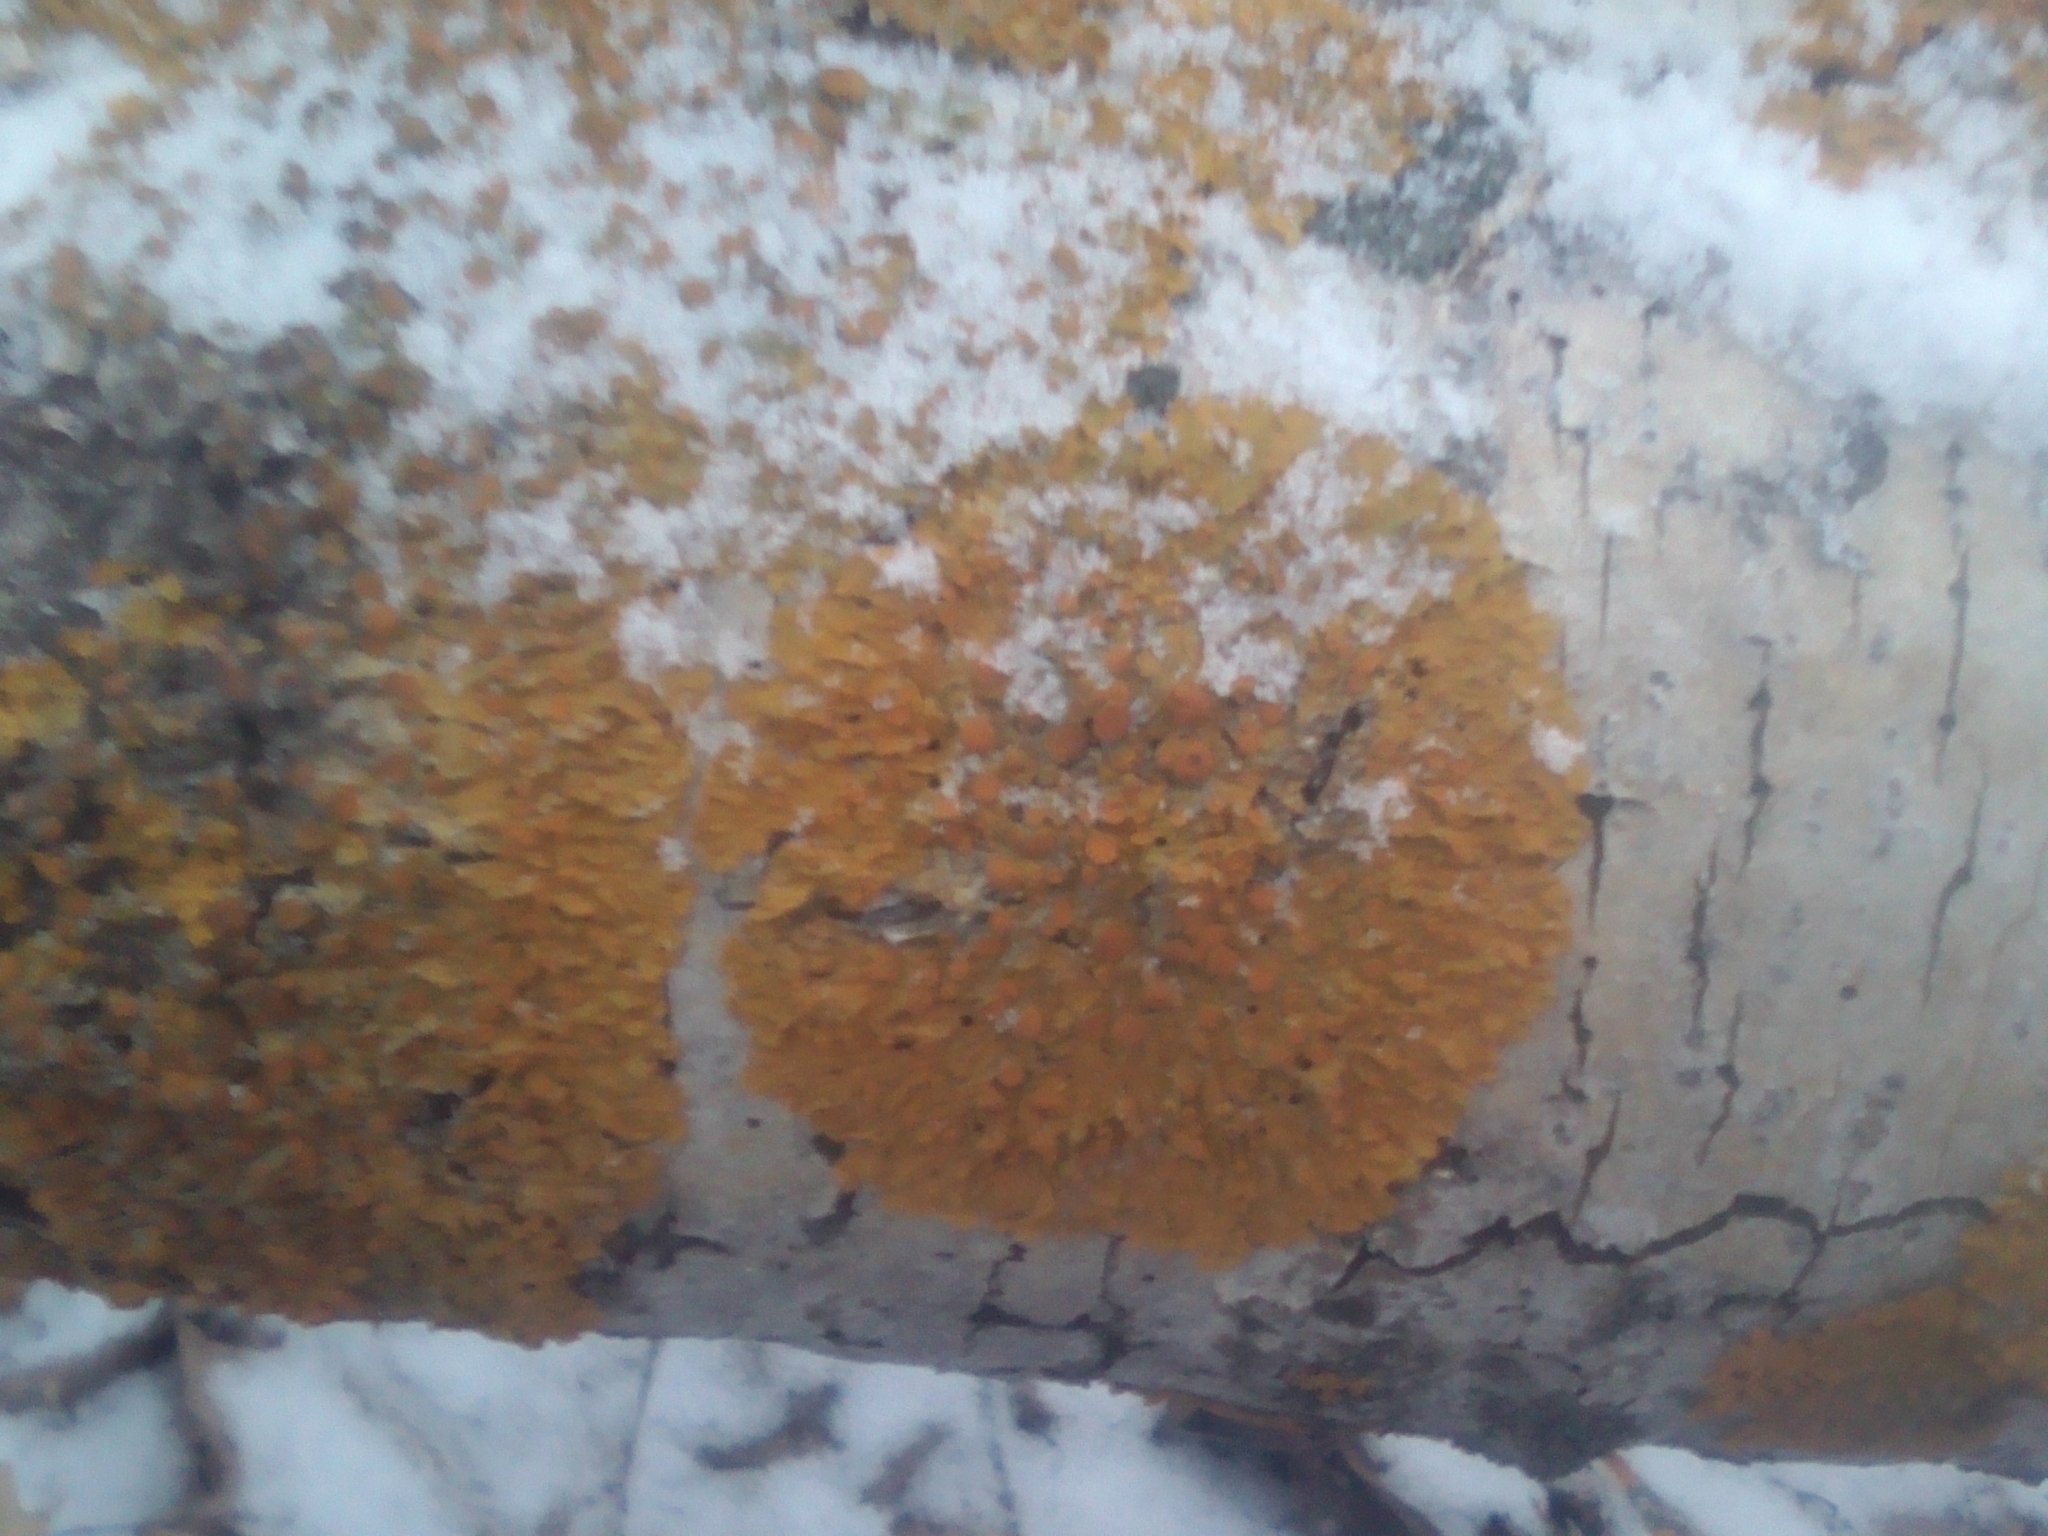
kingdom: Fungi
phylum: Ascomycota
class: Lecanoromycetes
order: Teloschistales
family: Teloschistaceae
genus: Xanthoria
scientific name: Xanthoria parietina
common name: Common orange lichen
